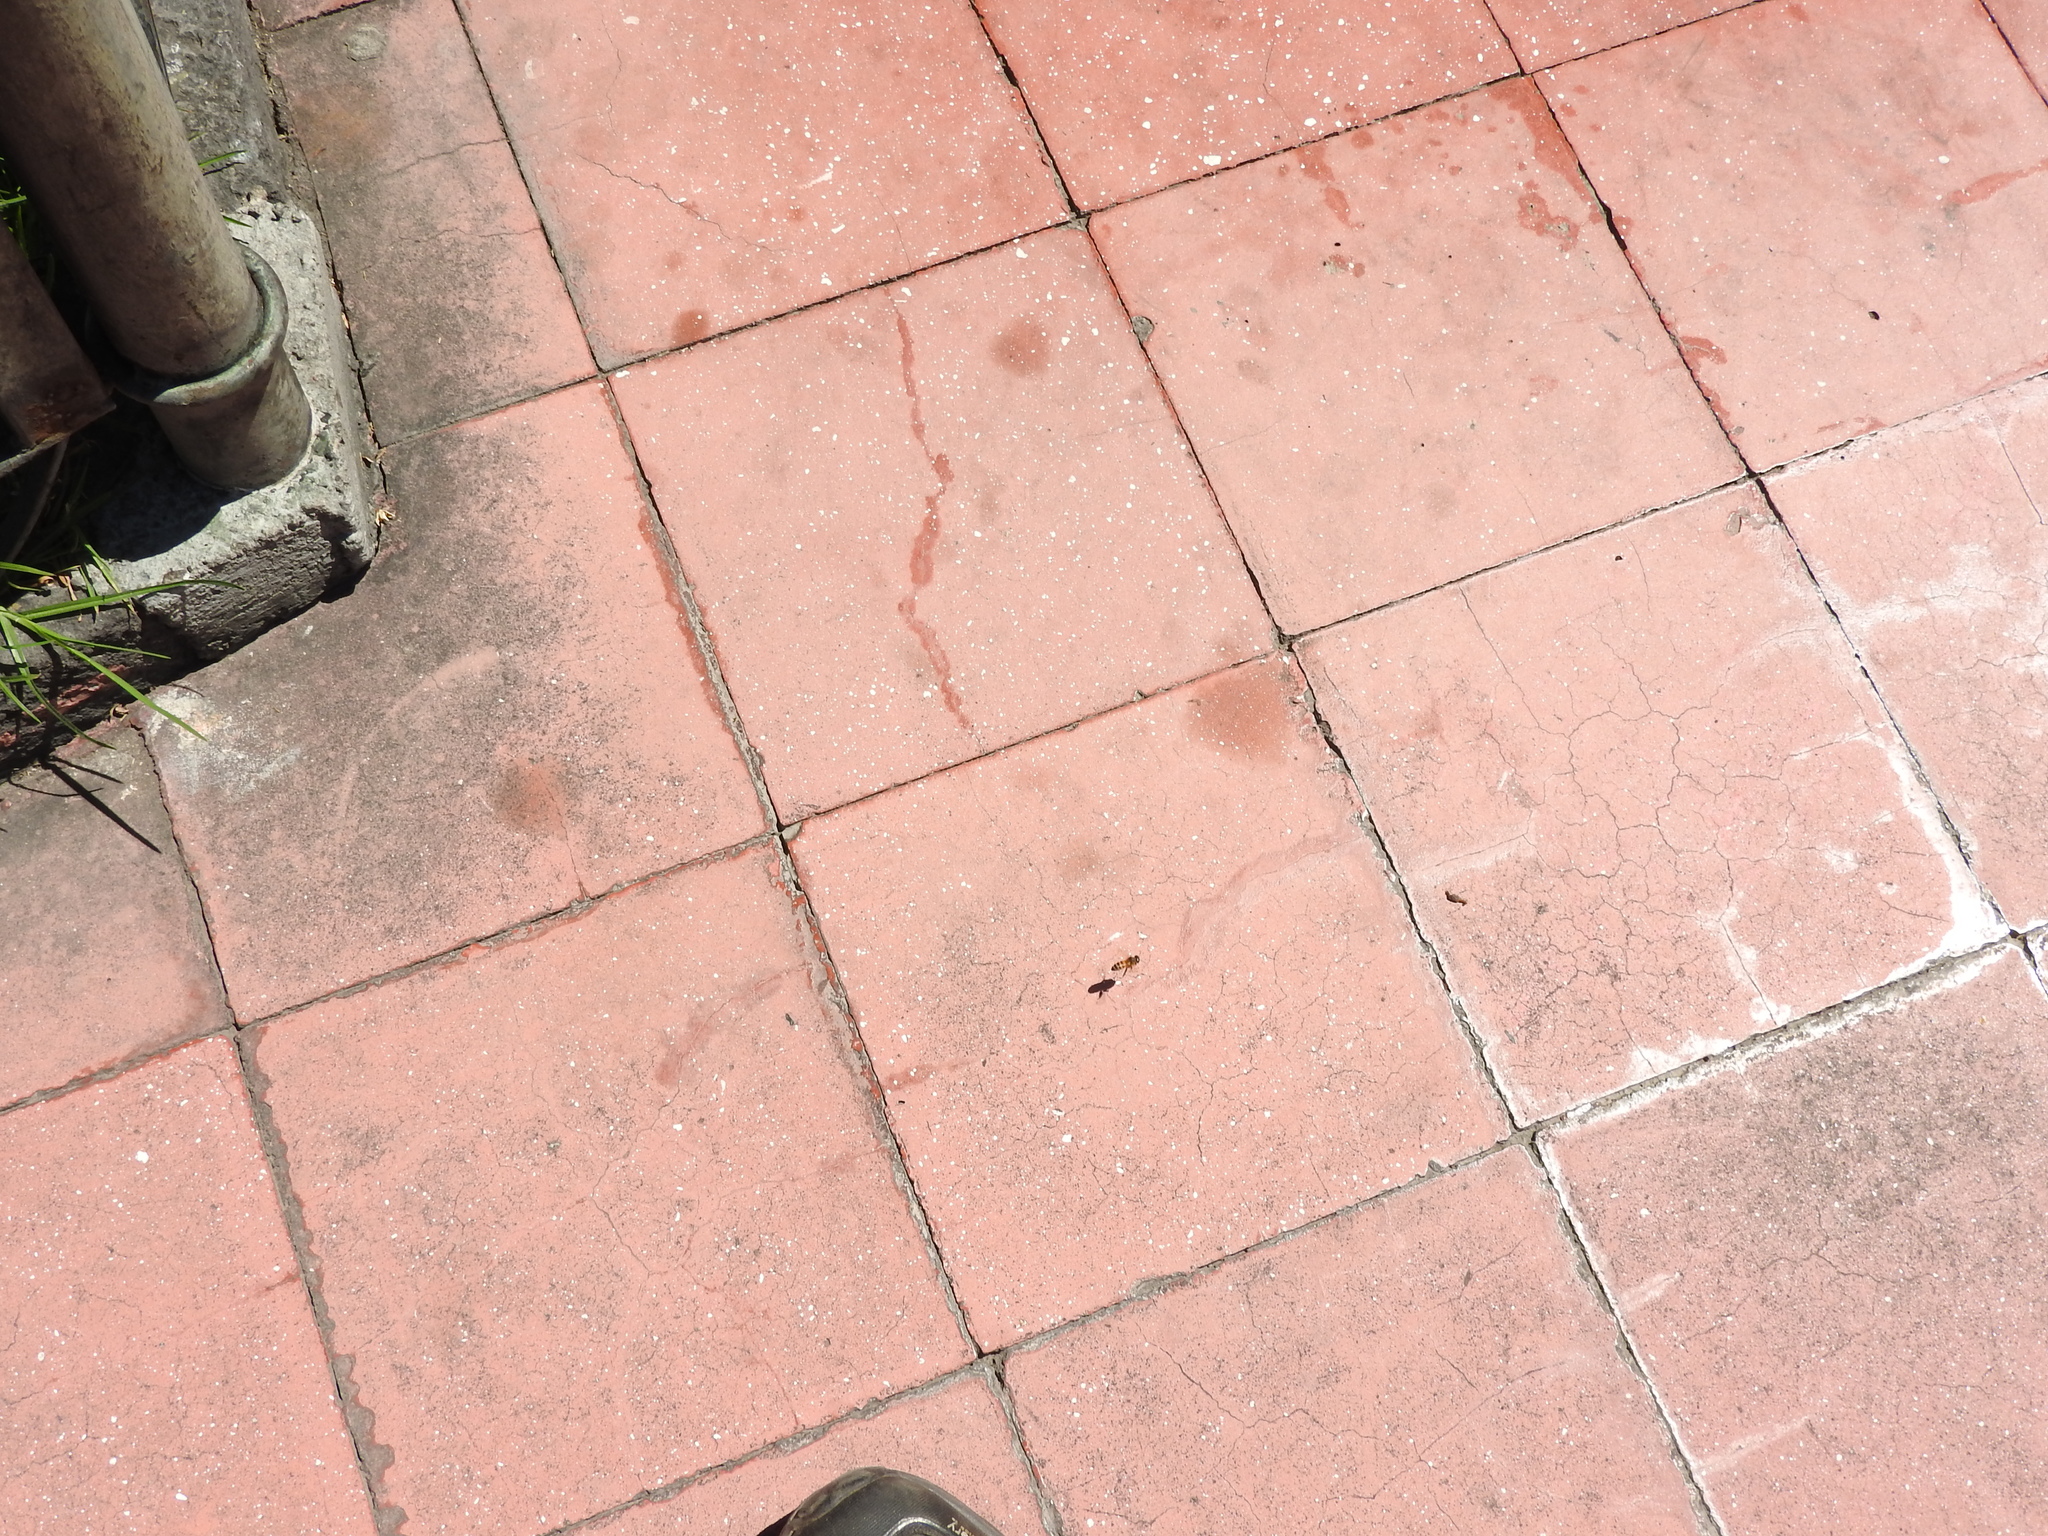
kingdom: Animalia
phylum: Arthropoda
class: Insecta
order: Hymenoptera
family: Apidae
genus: Apis
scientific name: Apis mellifera
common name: Honey bee
